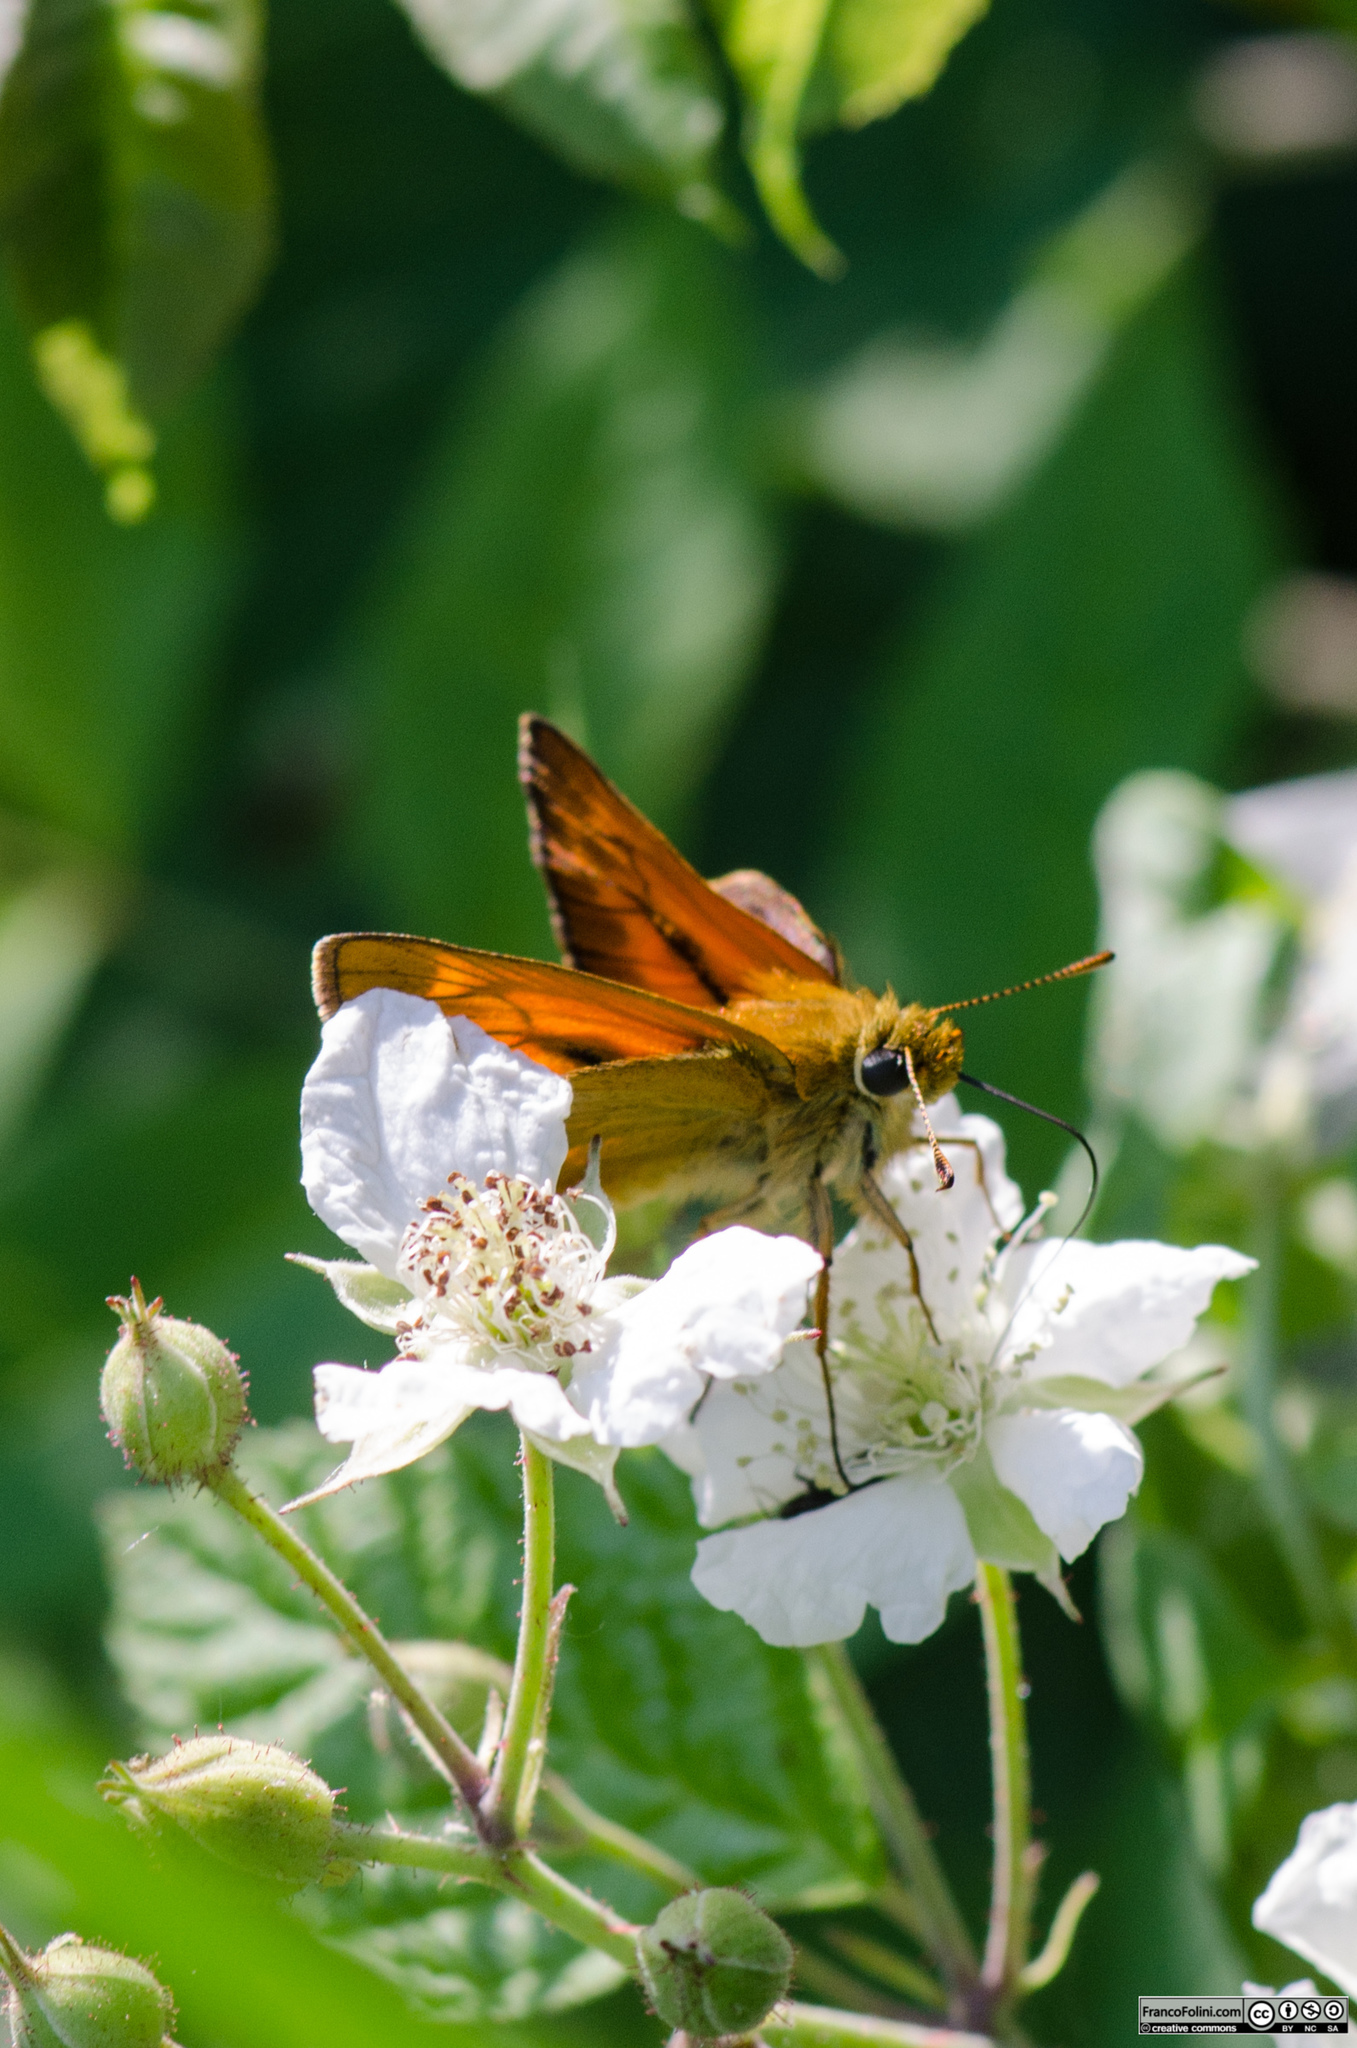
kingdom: Animalia
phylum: Arthropoda
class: Insecta
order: Lepidoptera
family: Hesperiidae
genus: Ochlodes
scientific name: Ochlodes venata
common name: Large skipper
